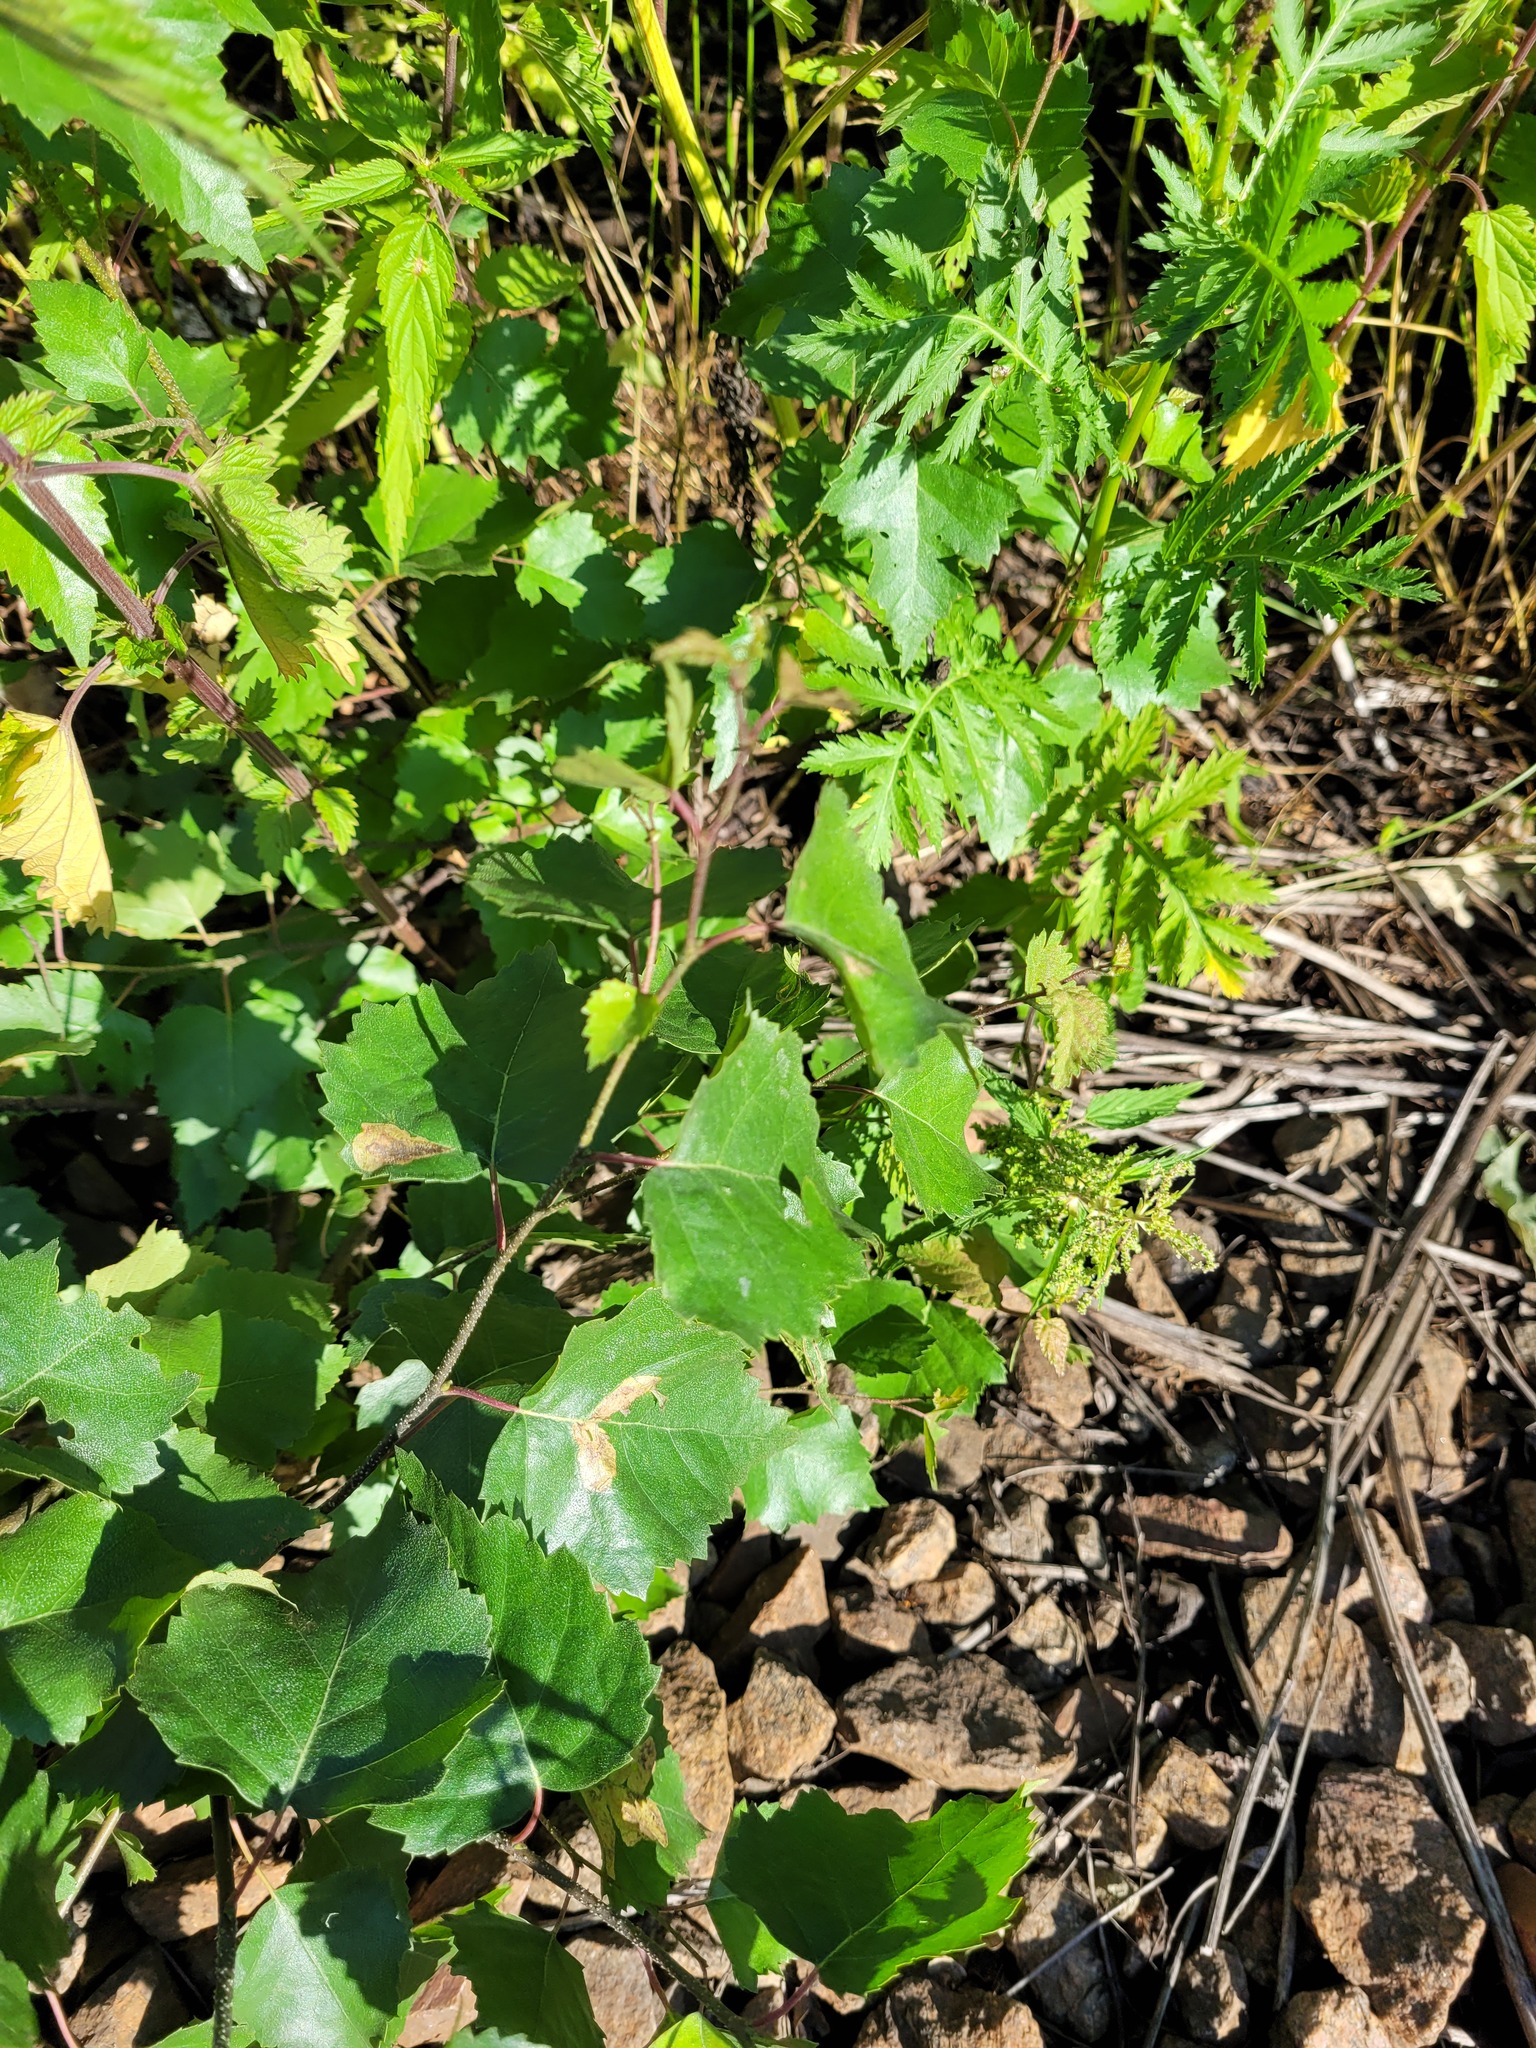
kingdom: Plantae
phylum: Tracheophyta
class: Magnoliopsida
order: Fagales
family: Betulaceae
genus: Betula
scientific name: Betula pendula
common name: Silver birch
